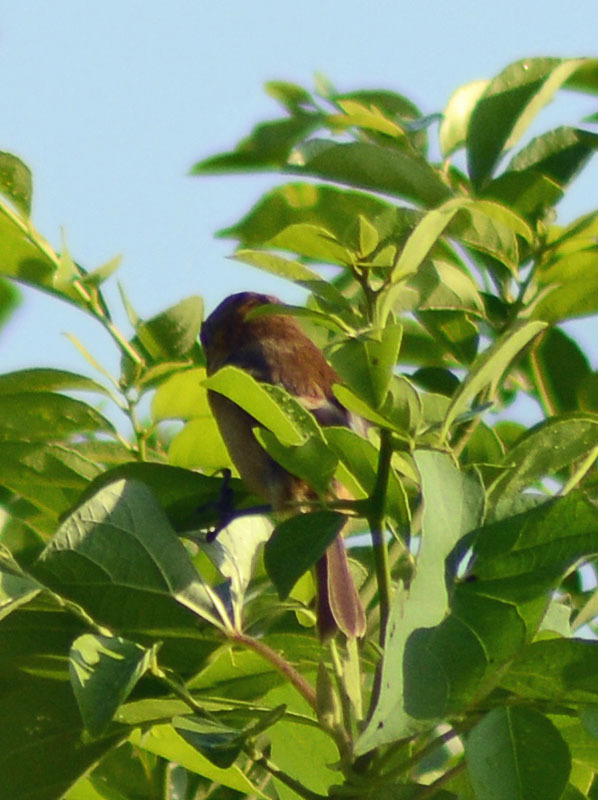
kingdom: Animalia
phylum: Chordata
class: Aves
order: Passeriformes
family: Cotingidae
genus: Pachyramphus
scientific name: Pachyramphus aglaiae
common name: Rose-throated becard
